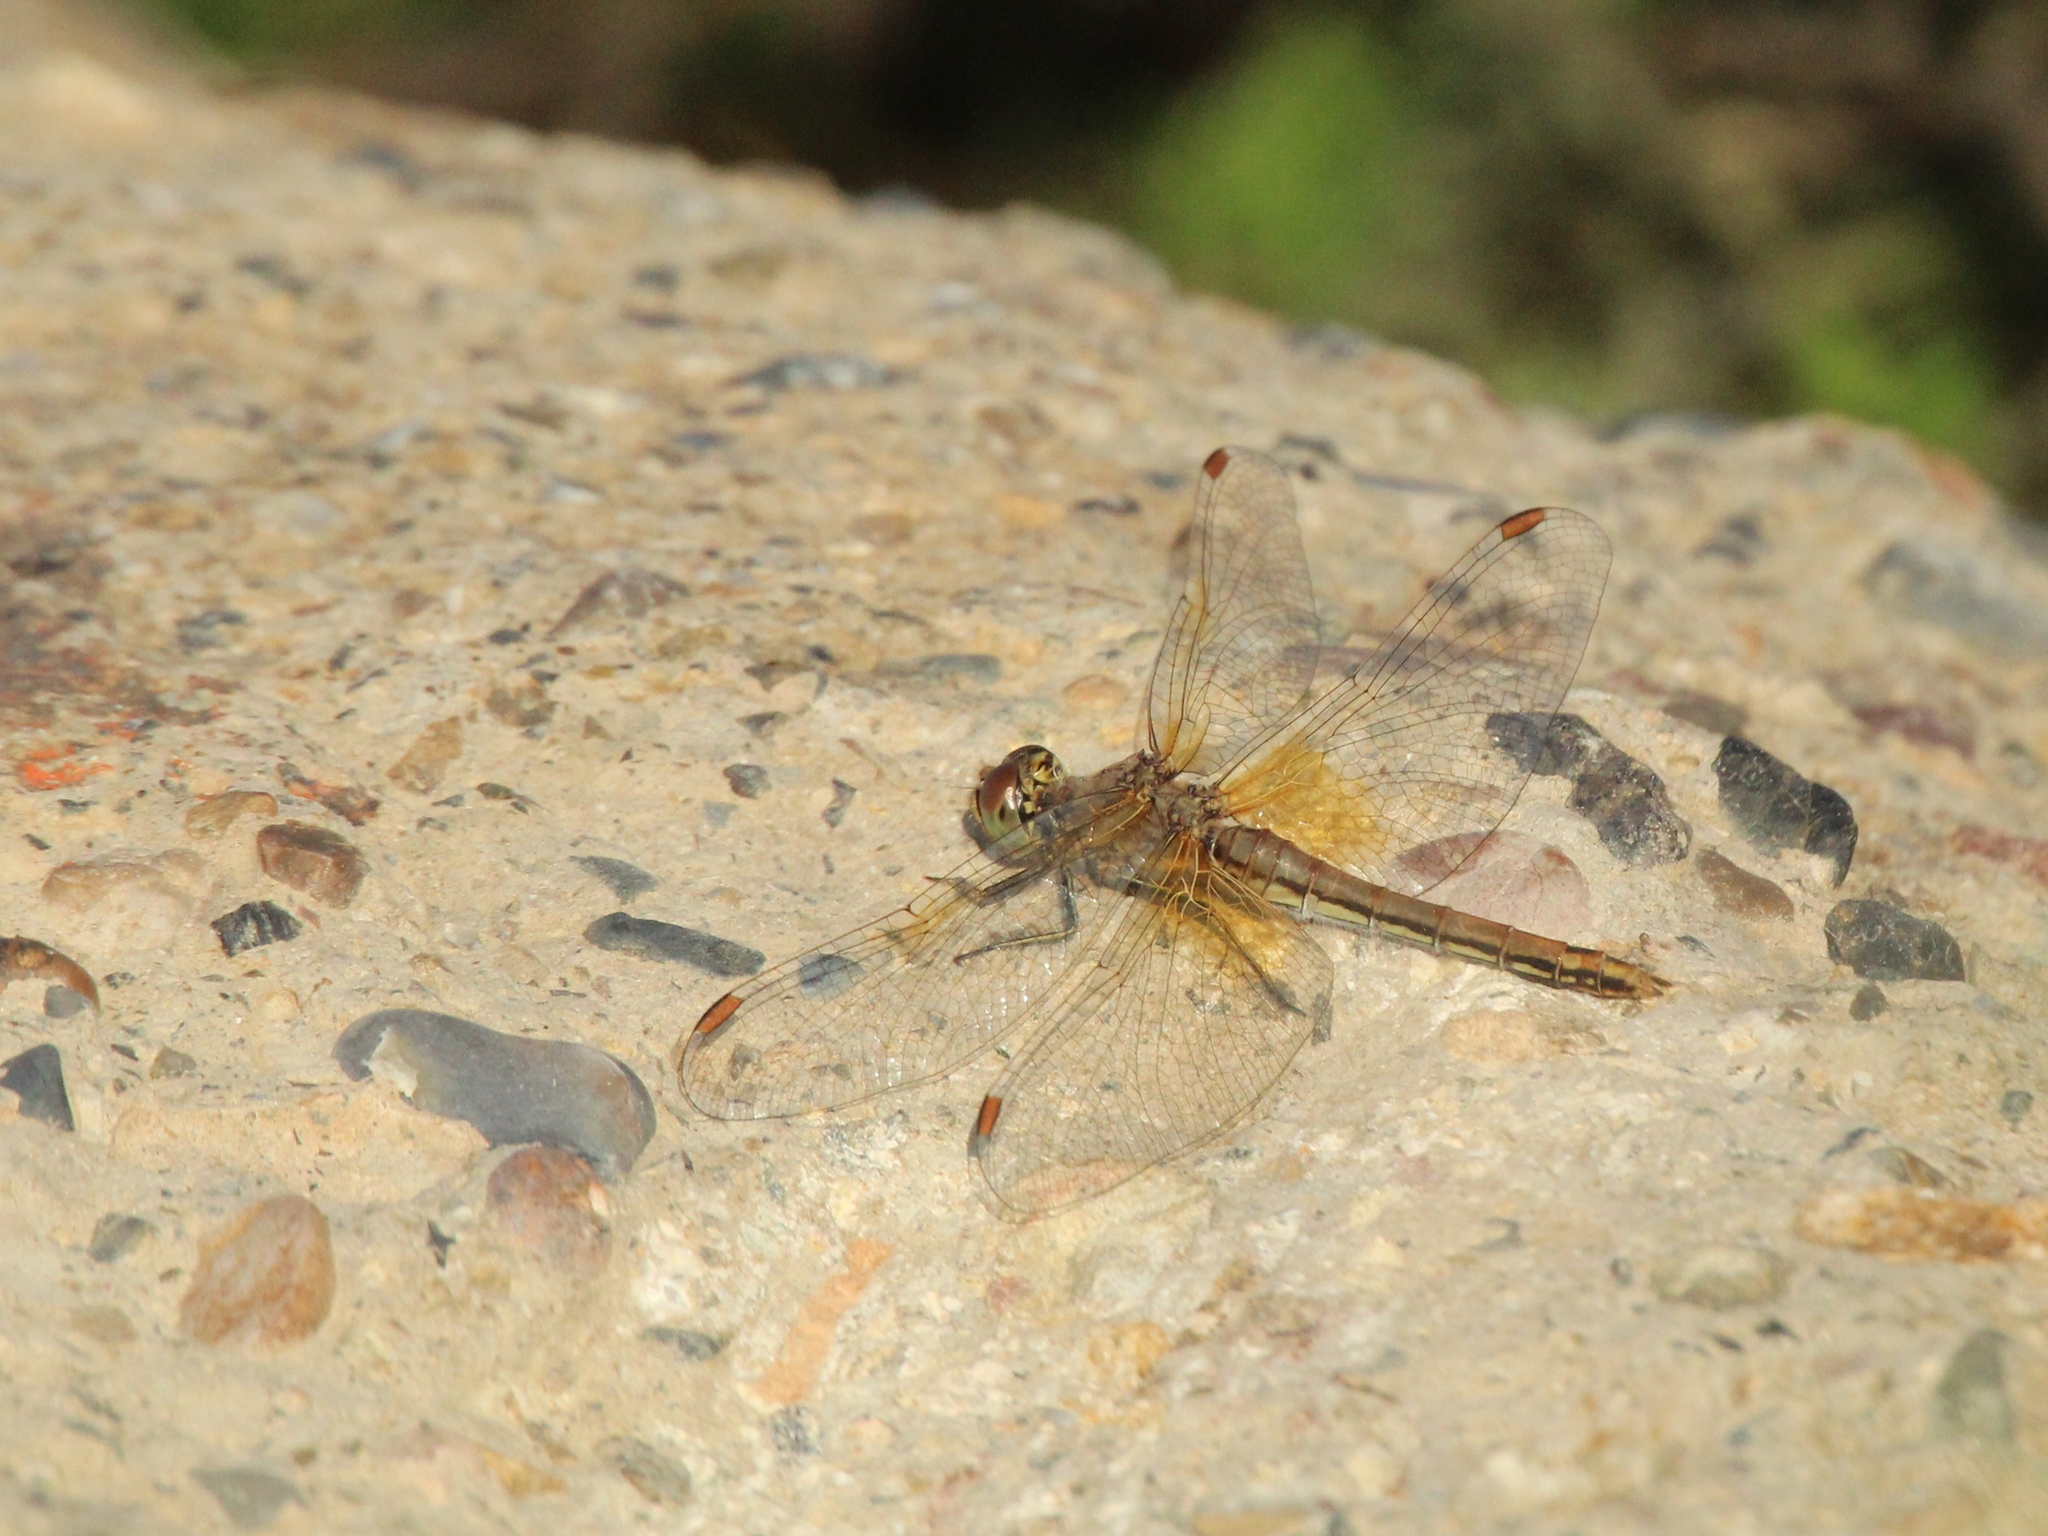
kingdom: Animalia
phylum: Arthropoda
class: Insecta
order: Odonata
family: Libellulidae
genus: Sympetrum
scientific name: Sympetrum flaveolum
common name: Yellow-winged darter
